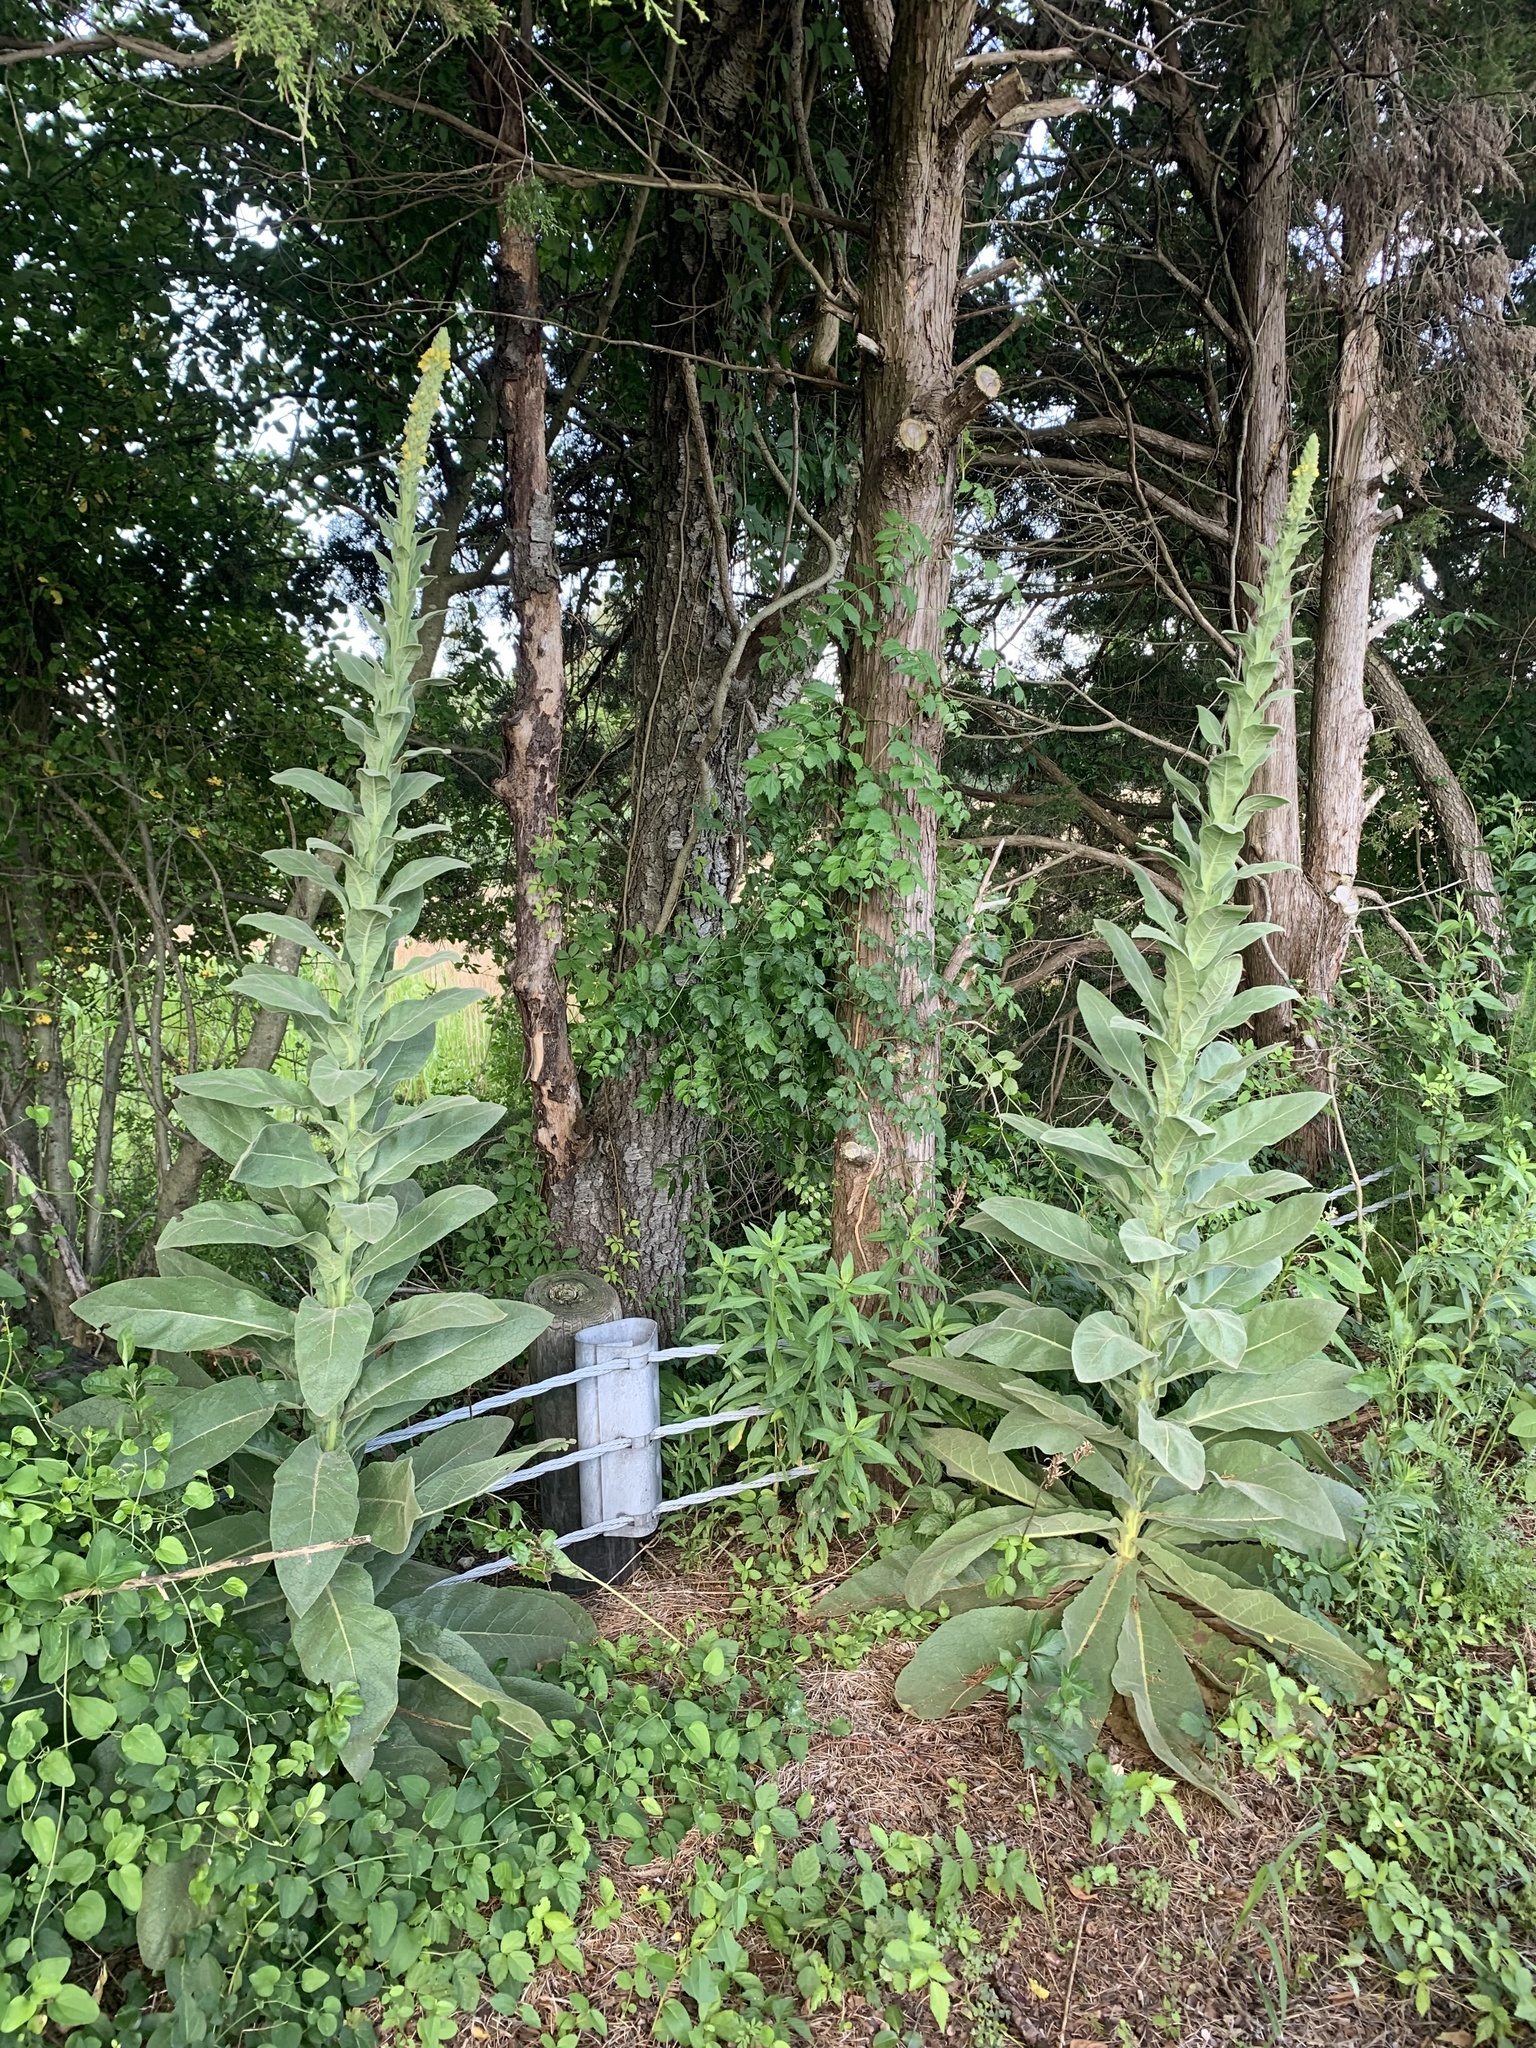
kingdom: Plantae
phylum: Tracheophyta
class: Magnoliopsida
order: Lamiales
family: Scrophulariaceae
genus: Verbascum
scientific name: Verbascum thapsus
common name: Common mullein
